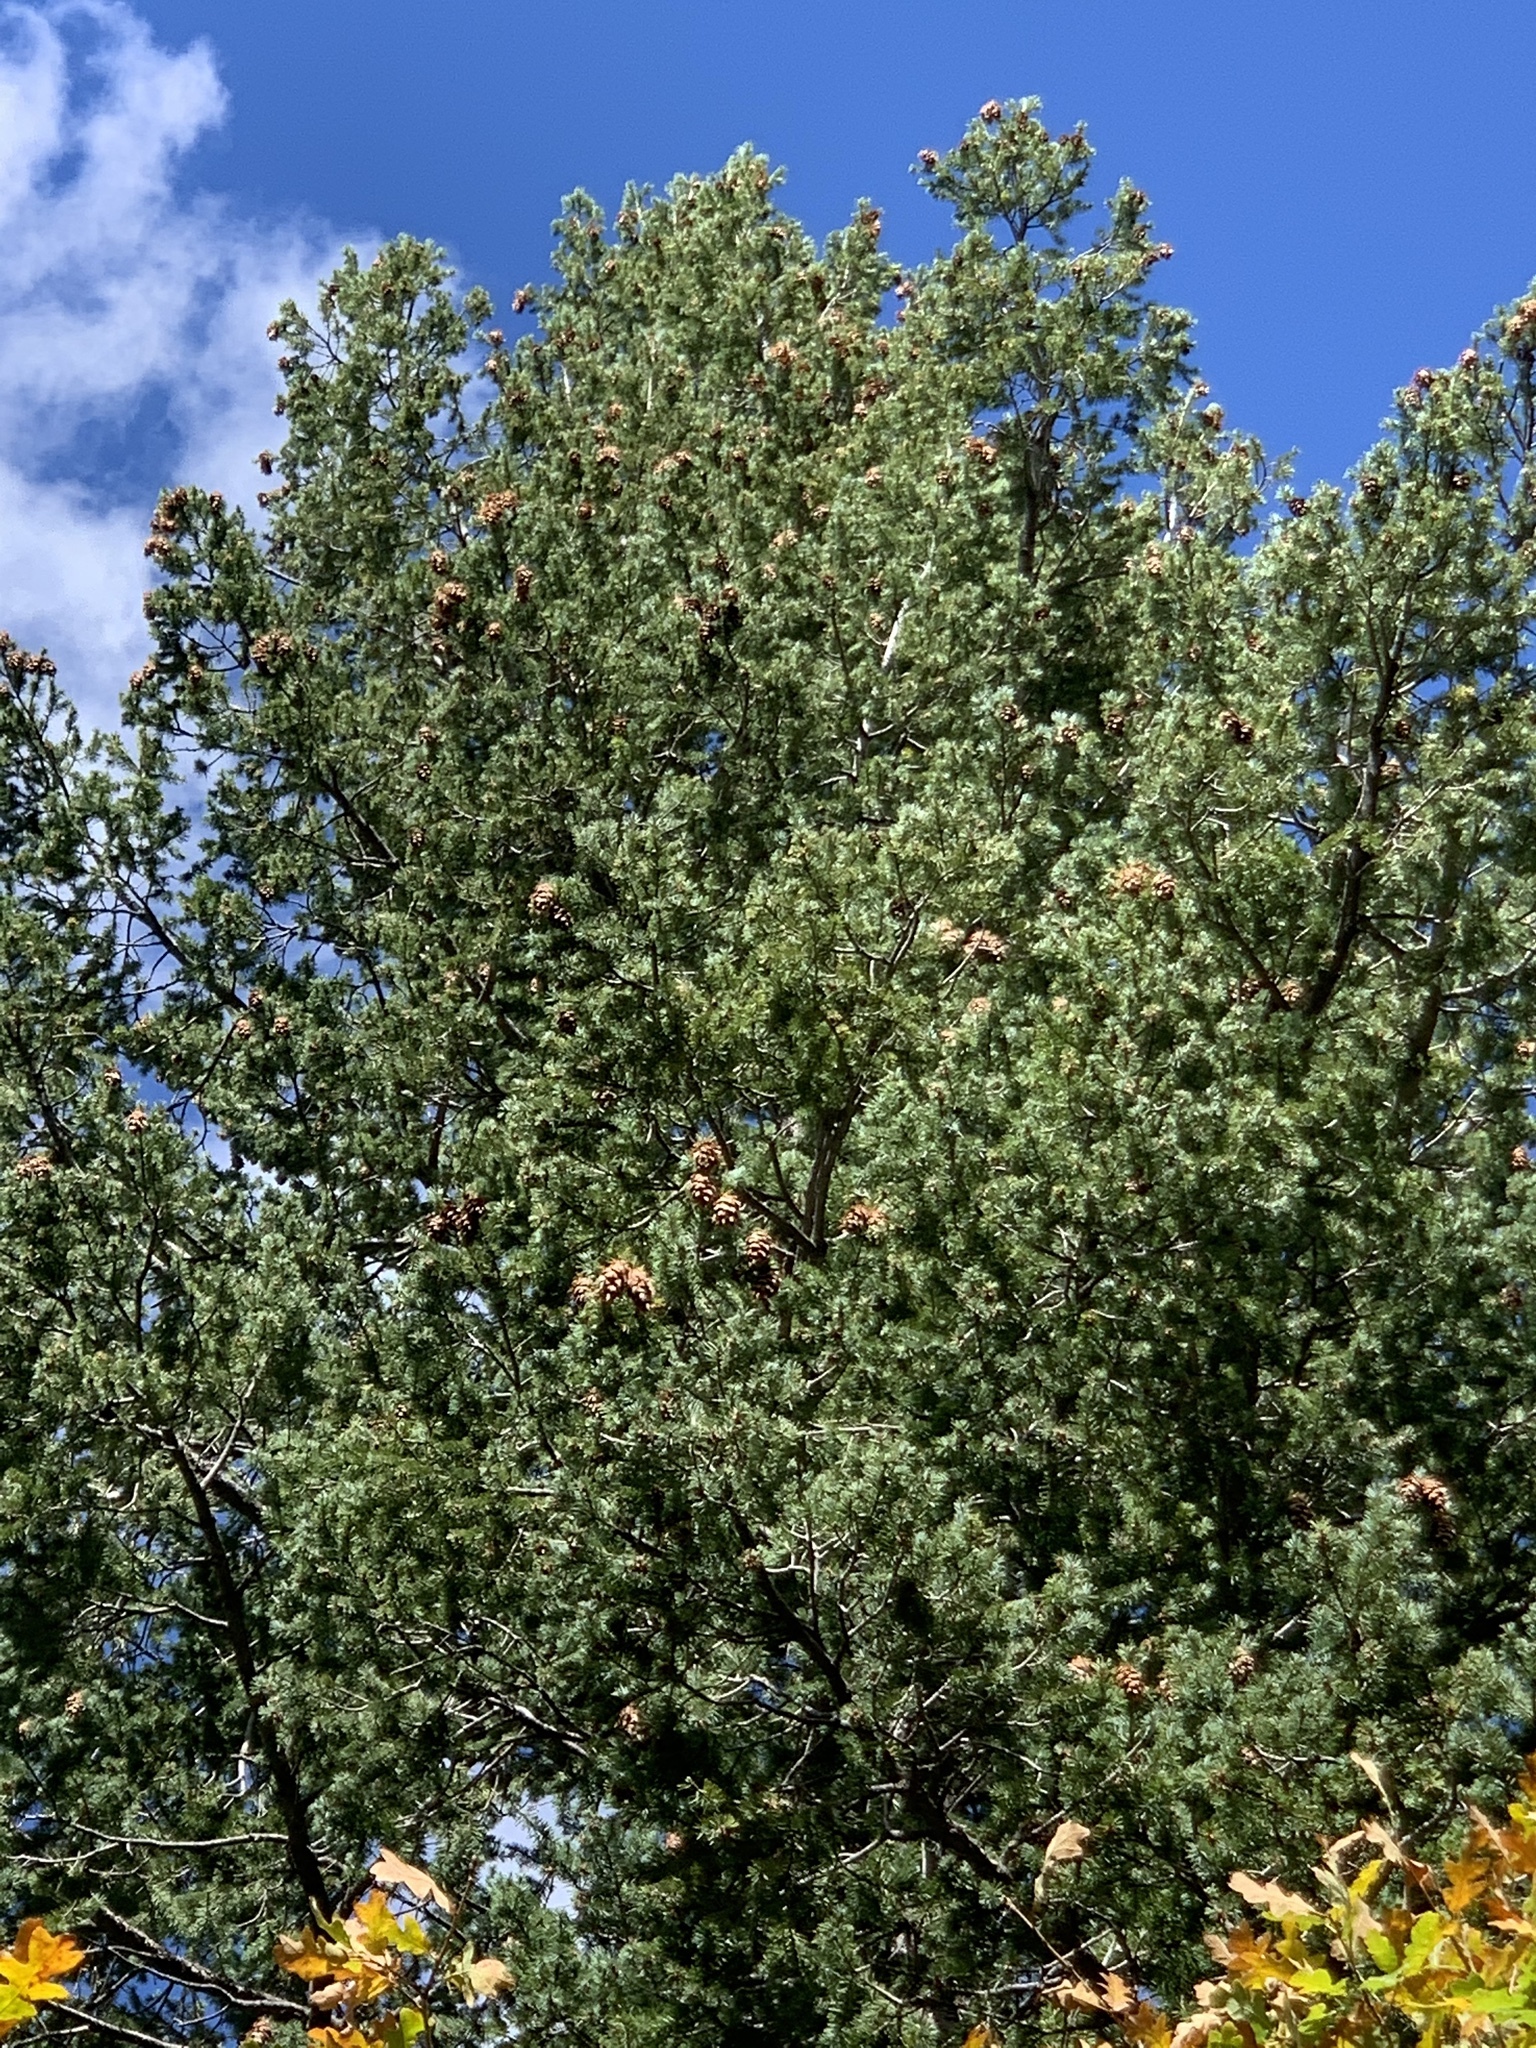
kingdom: Plantae
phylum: Tracheophyta
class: Pinopsida
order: Pinales
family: Pinaceae
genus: Pseudotsuga
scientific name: Pseudotsuga menziesii
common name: Douglas fir
